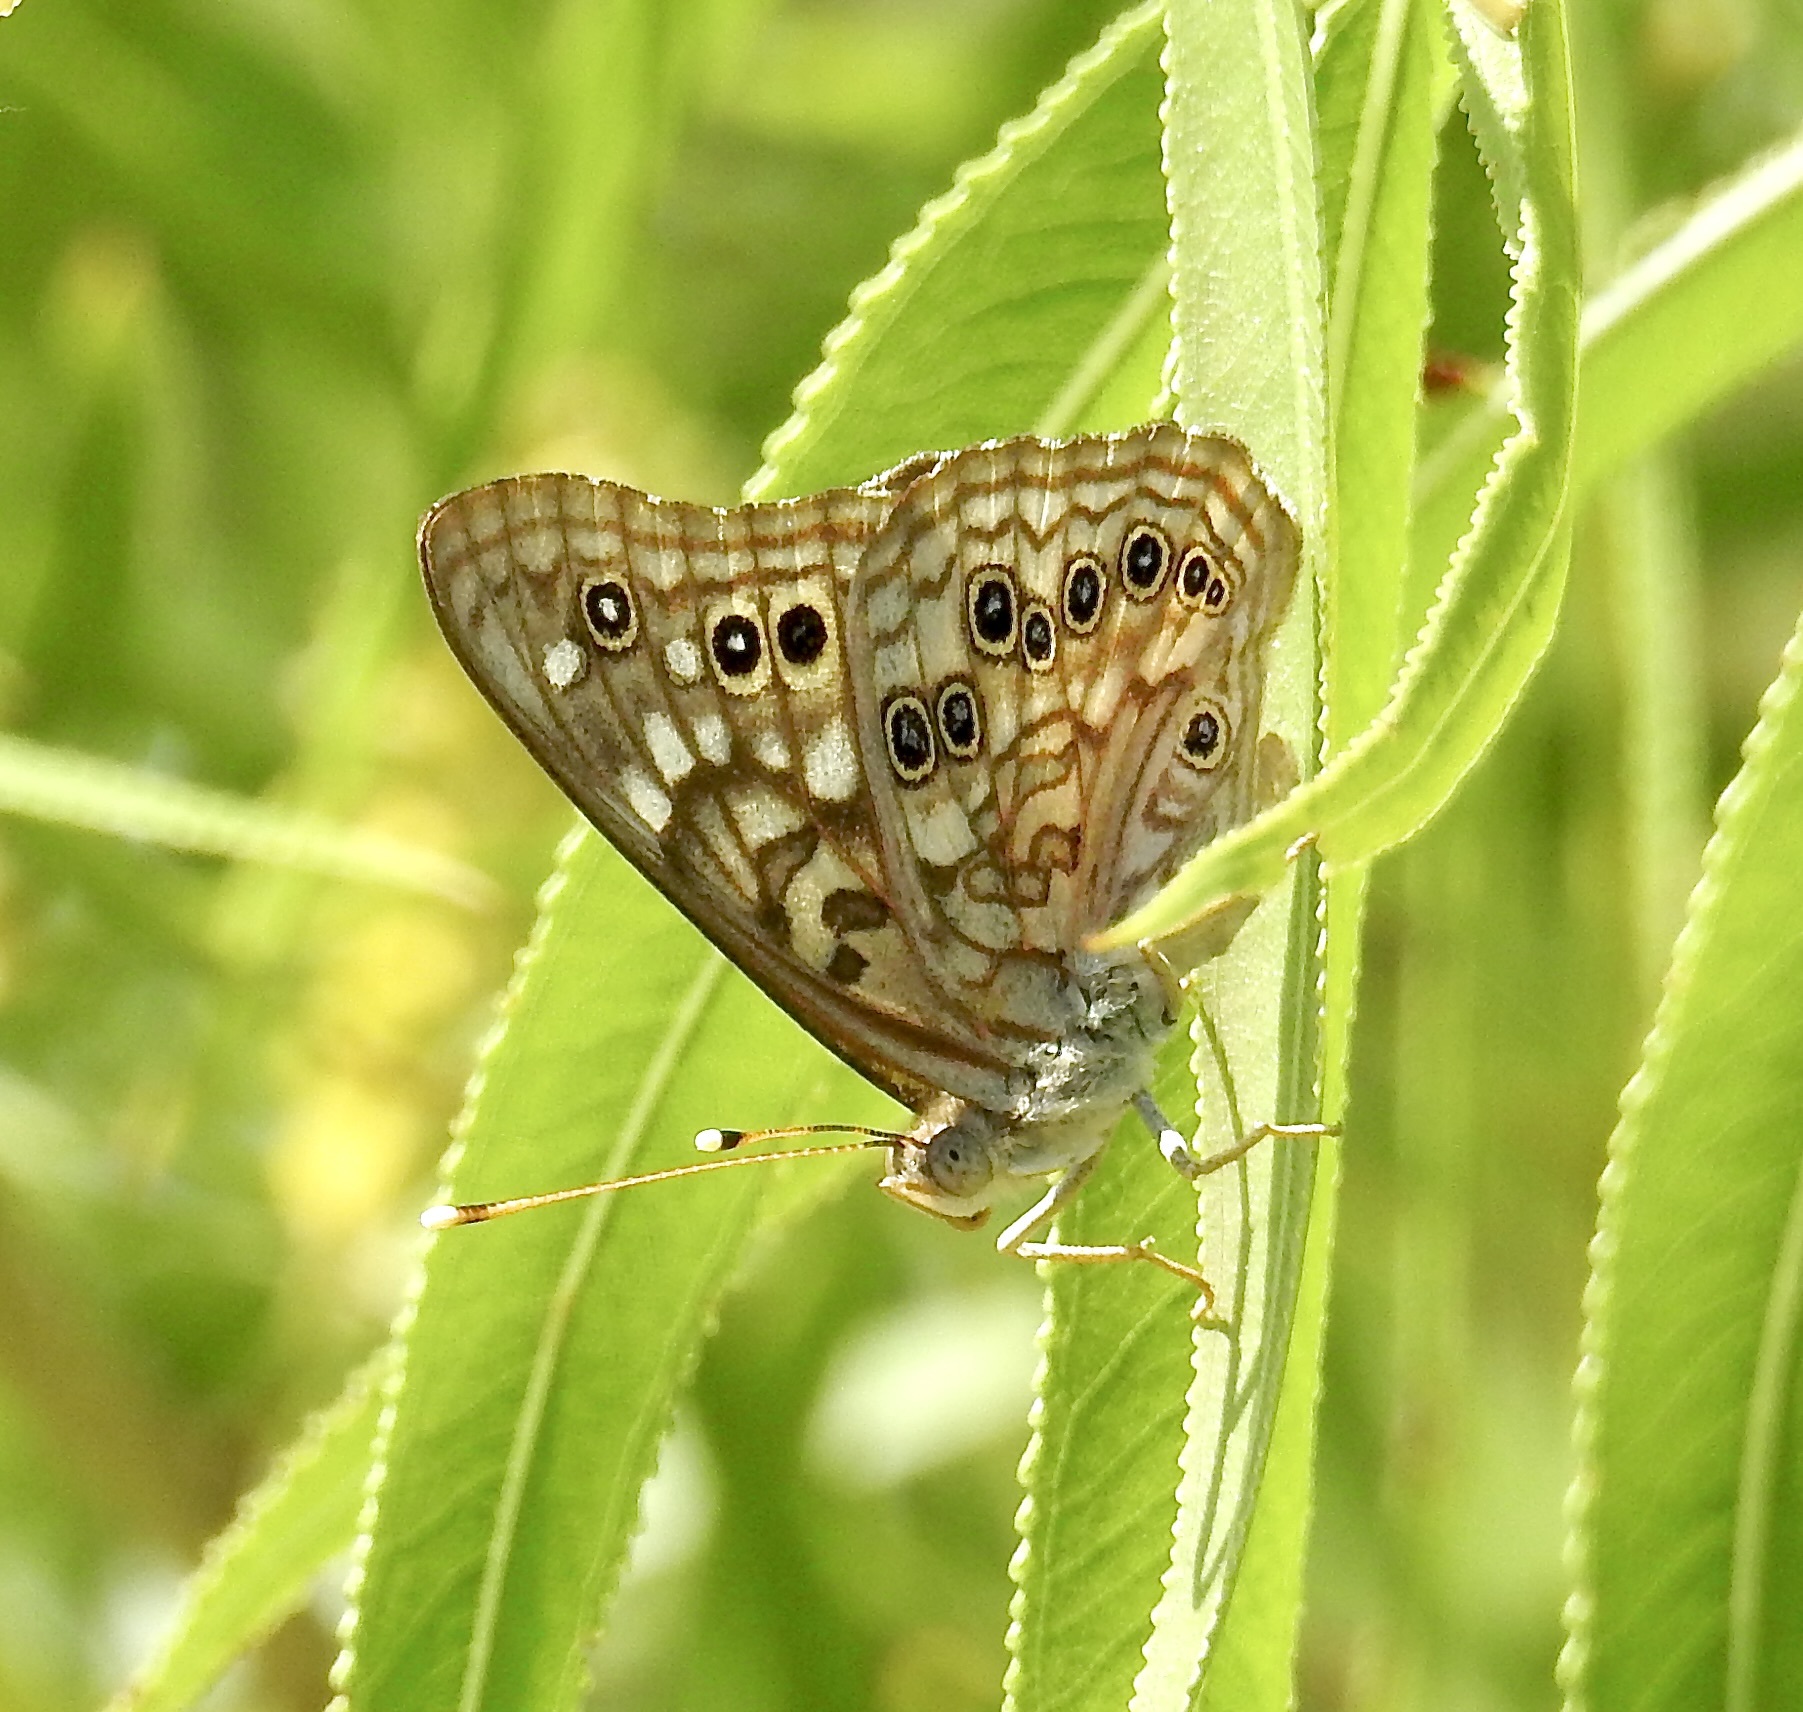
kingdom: Animalia
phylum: Arthropoda
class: Insecta
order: Lepidoptera
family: Nymphalidae
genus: Asterocampa
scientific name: Asterocampa celtis
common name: Hackberry emperor
